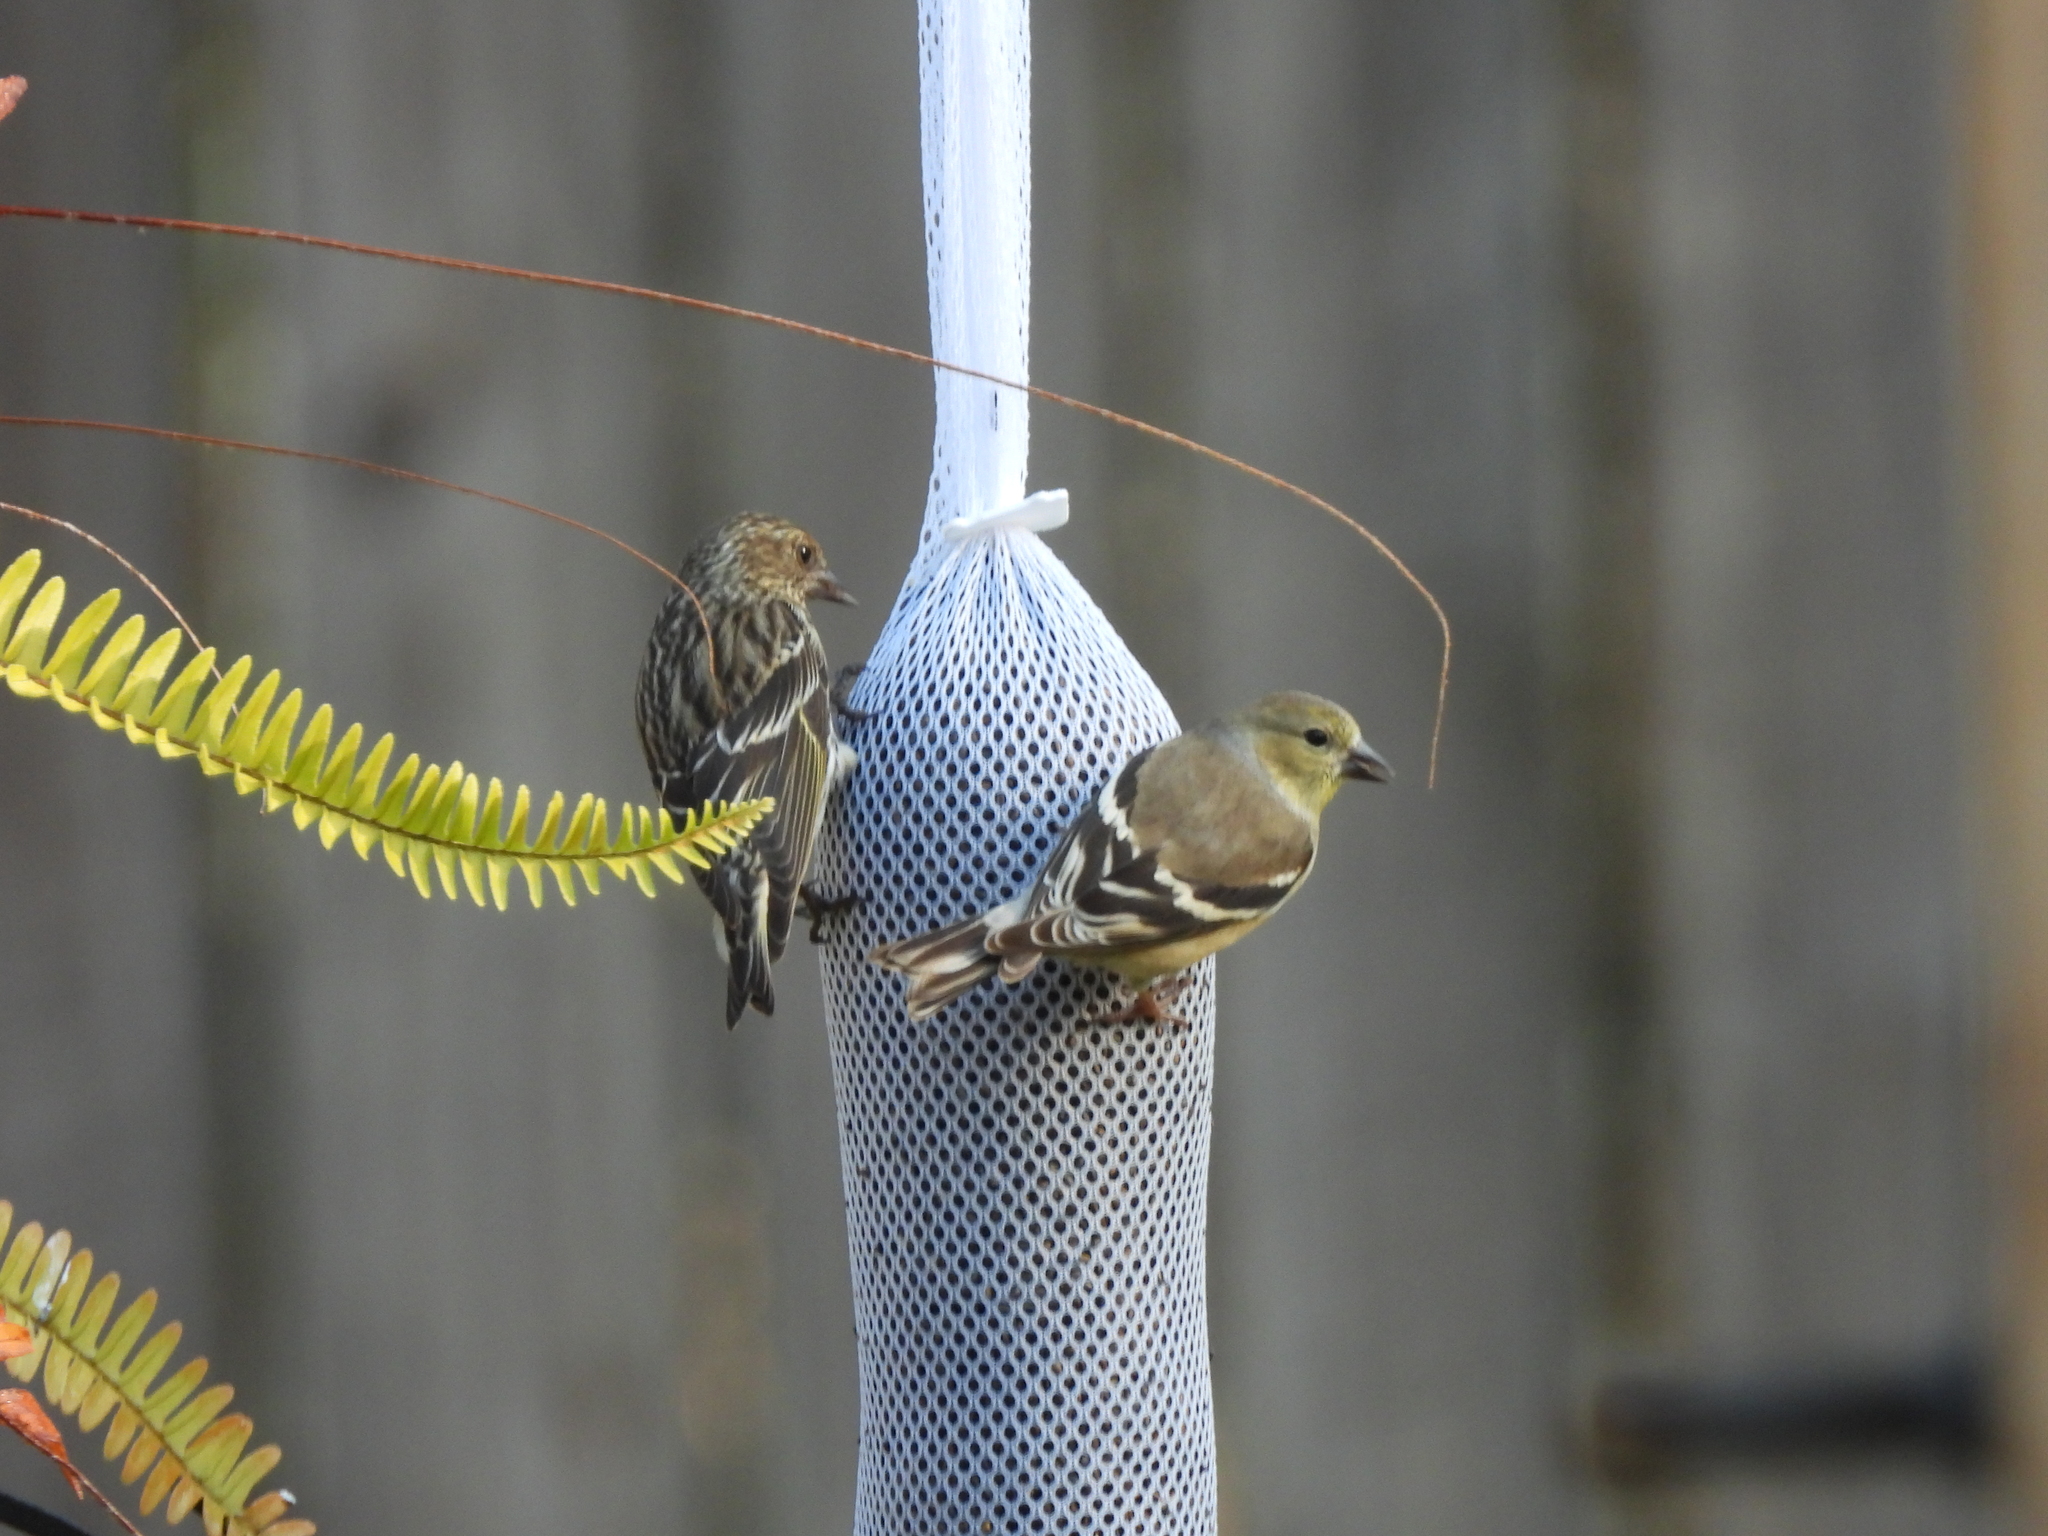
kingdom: Animalia
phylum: Chordata
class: Aves
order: Passeriformes
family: Fringillidae
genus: Spinus
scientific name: Spinus tristis
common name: American goldfinch
